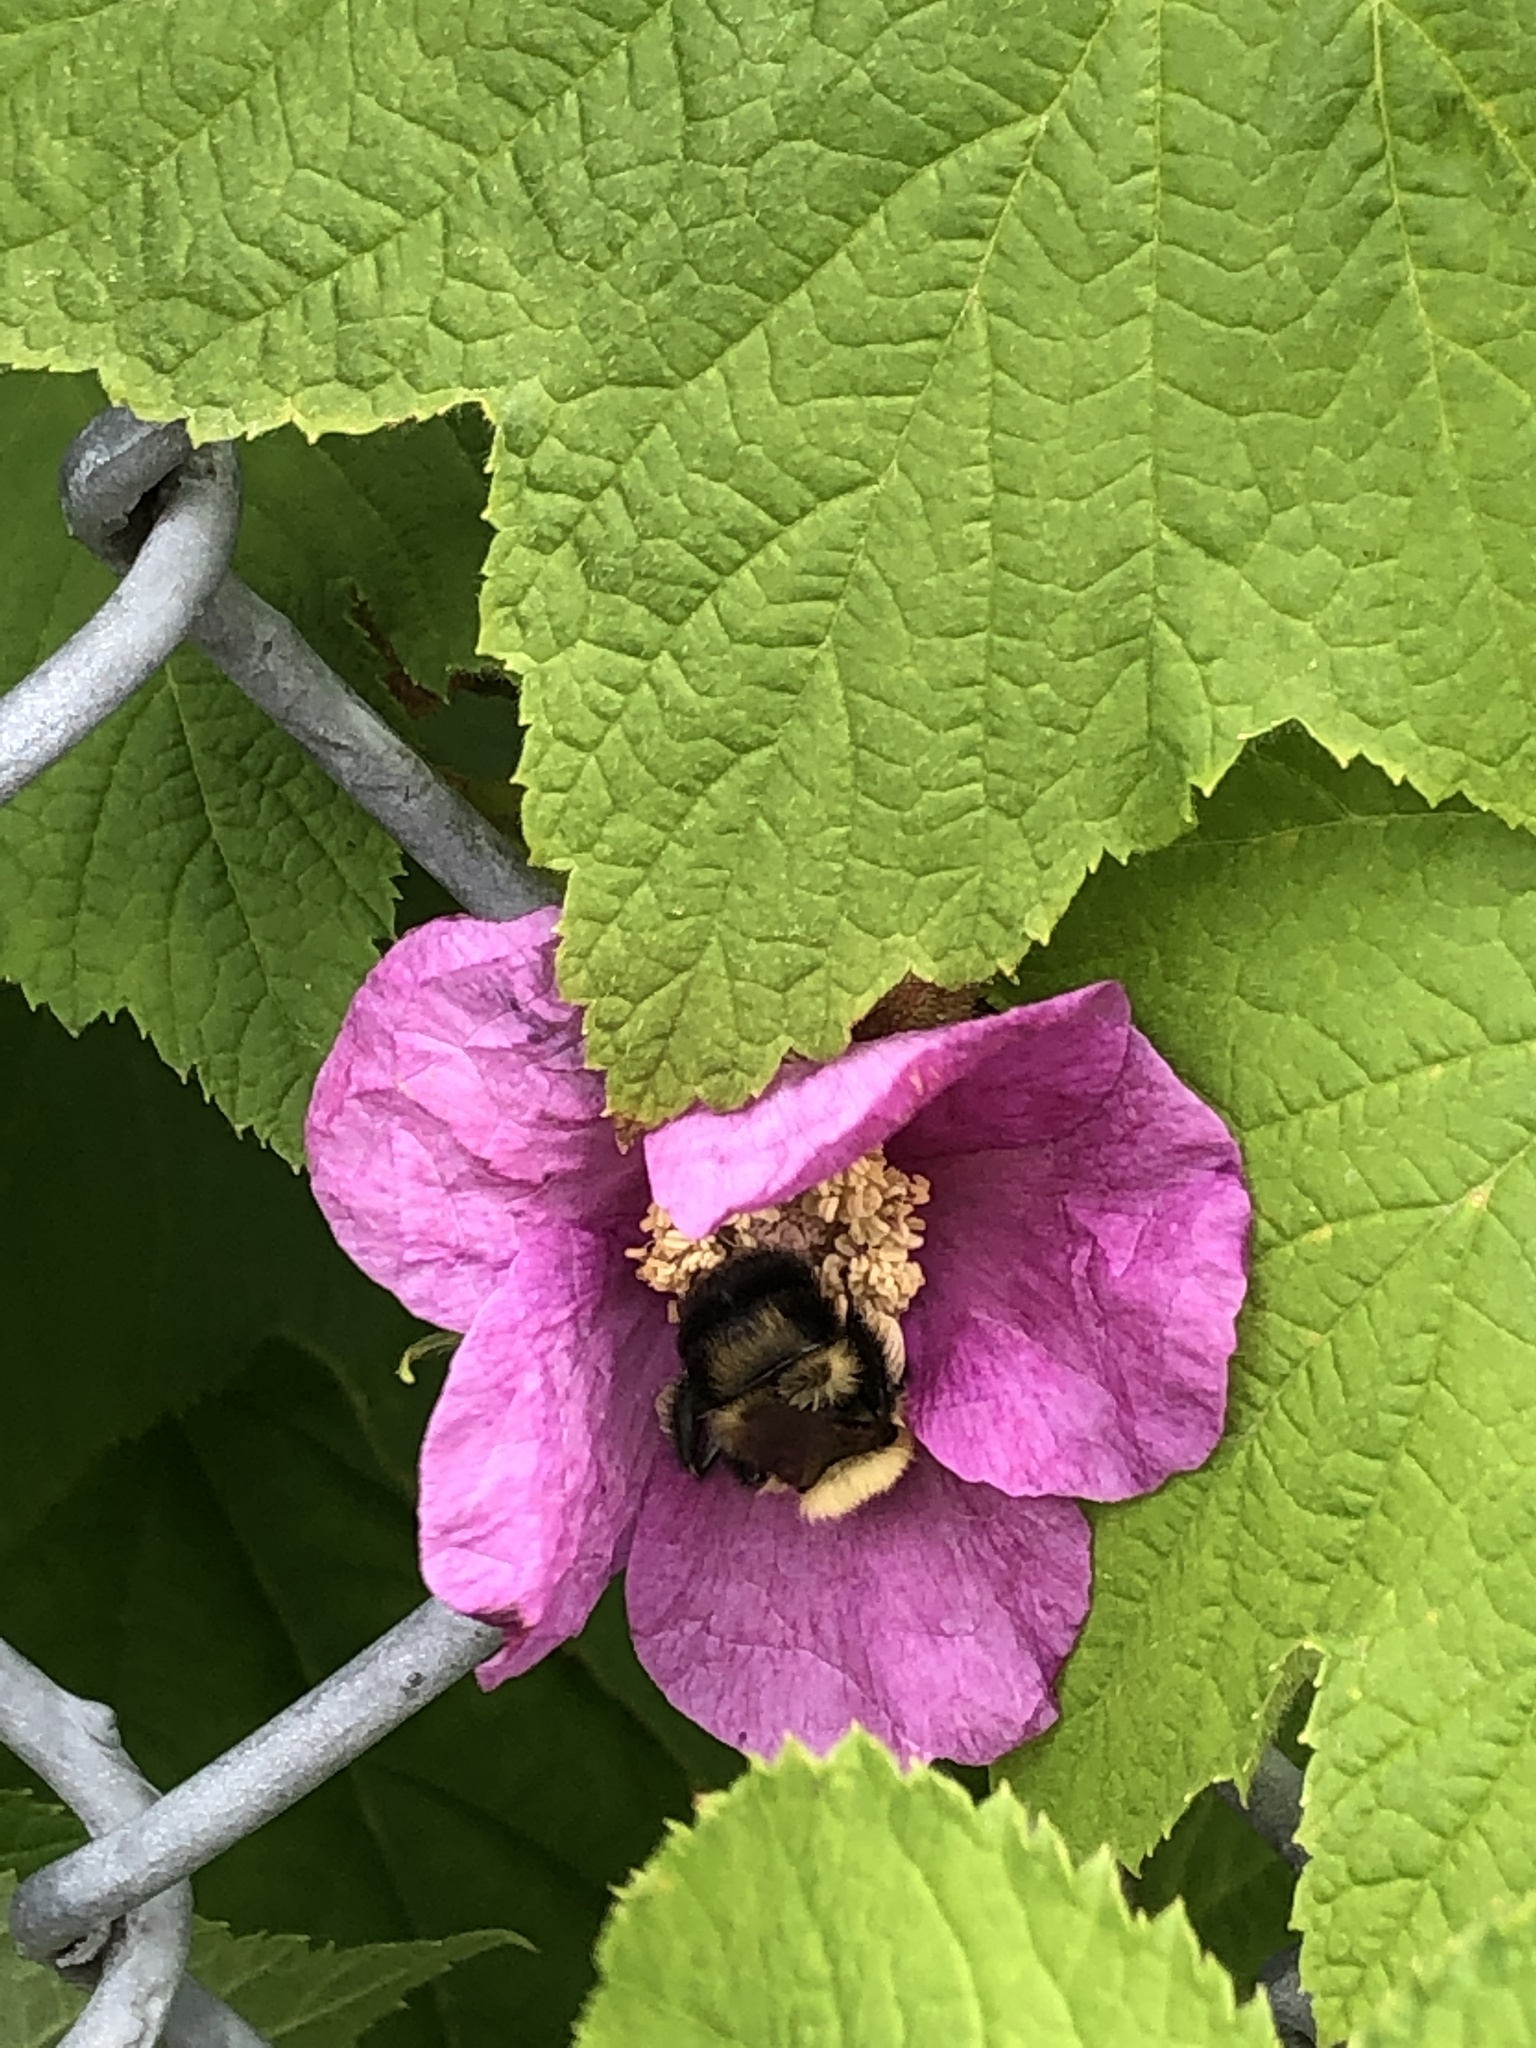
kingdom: Animalia
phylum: Arthropoda
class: Insecta
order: Hymenoptera
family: Apidae
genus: Bombus
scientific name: Bombus bimaculatus
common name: Two-spotted bumble bee
